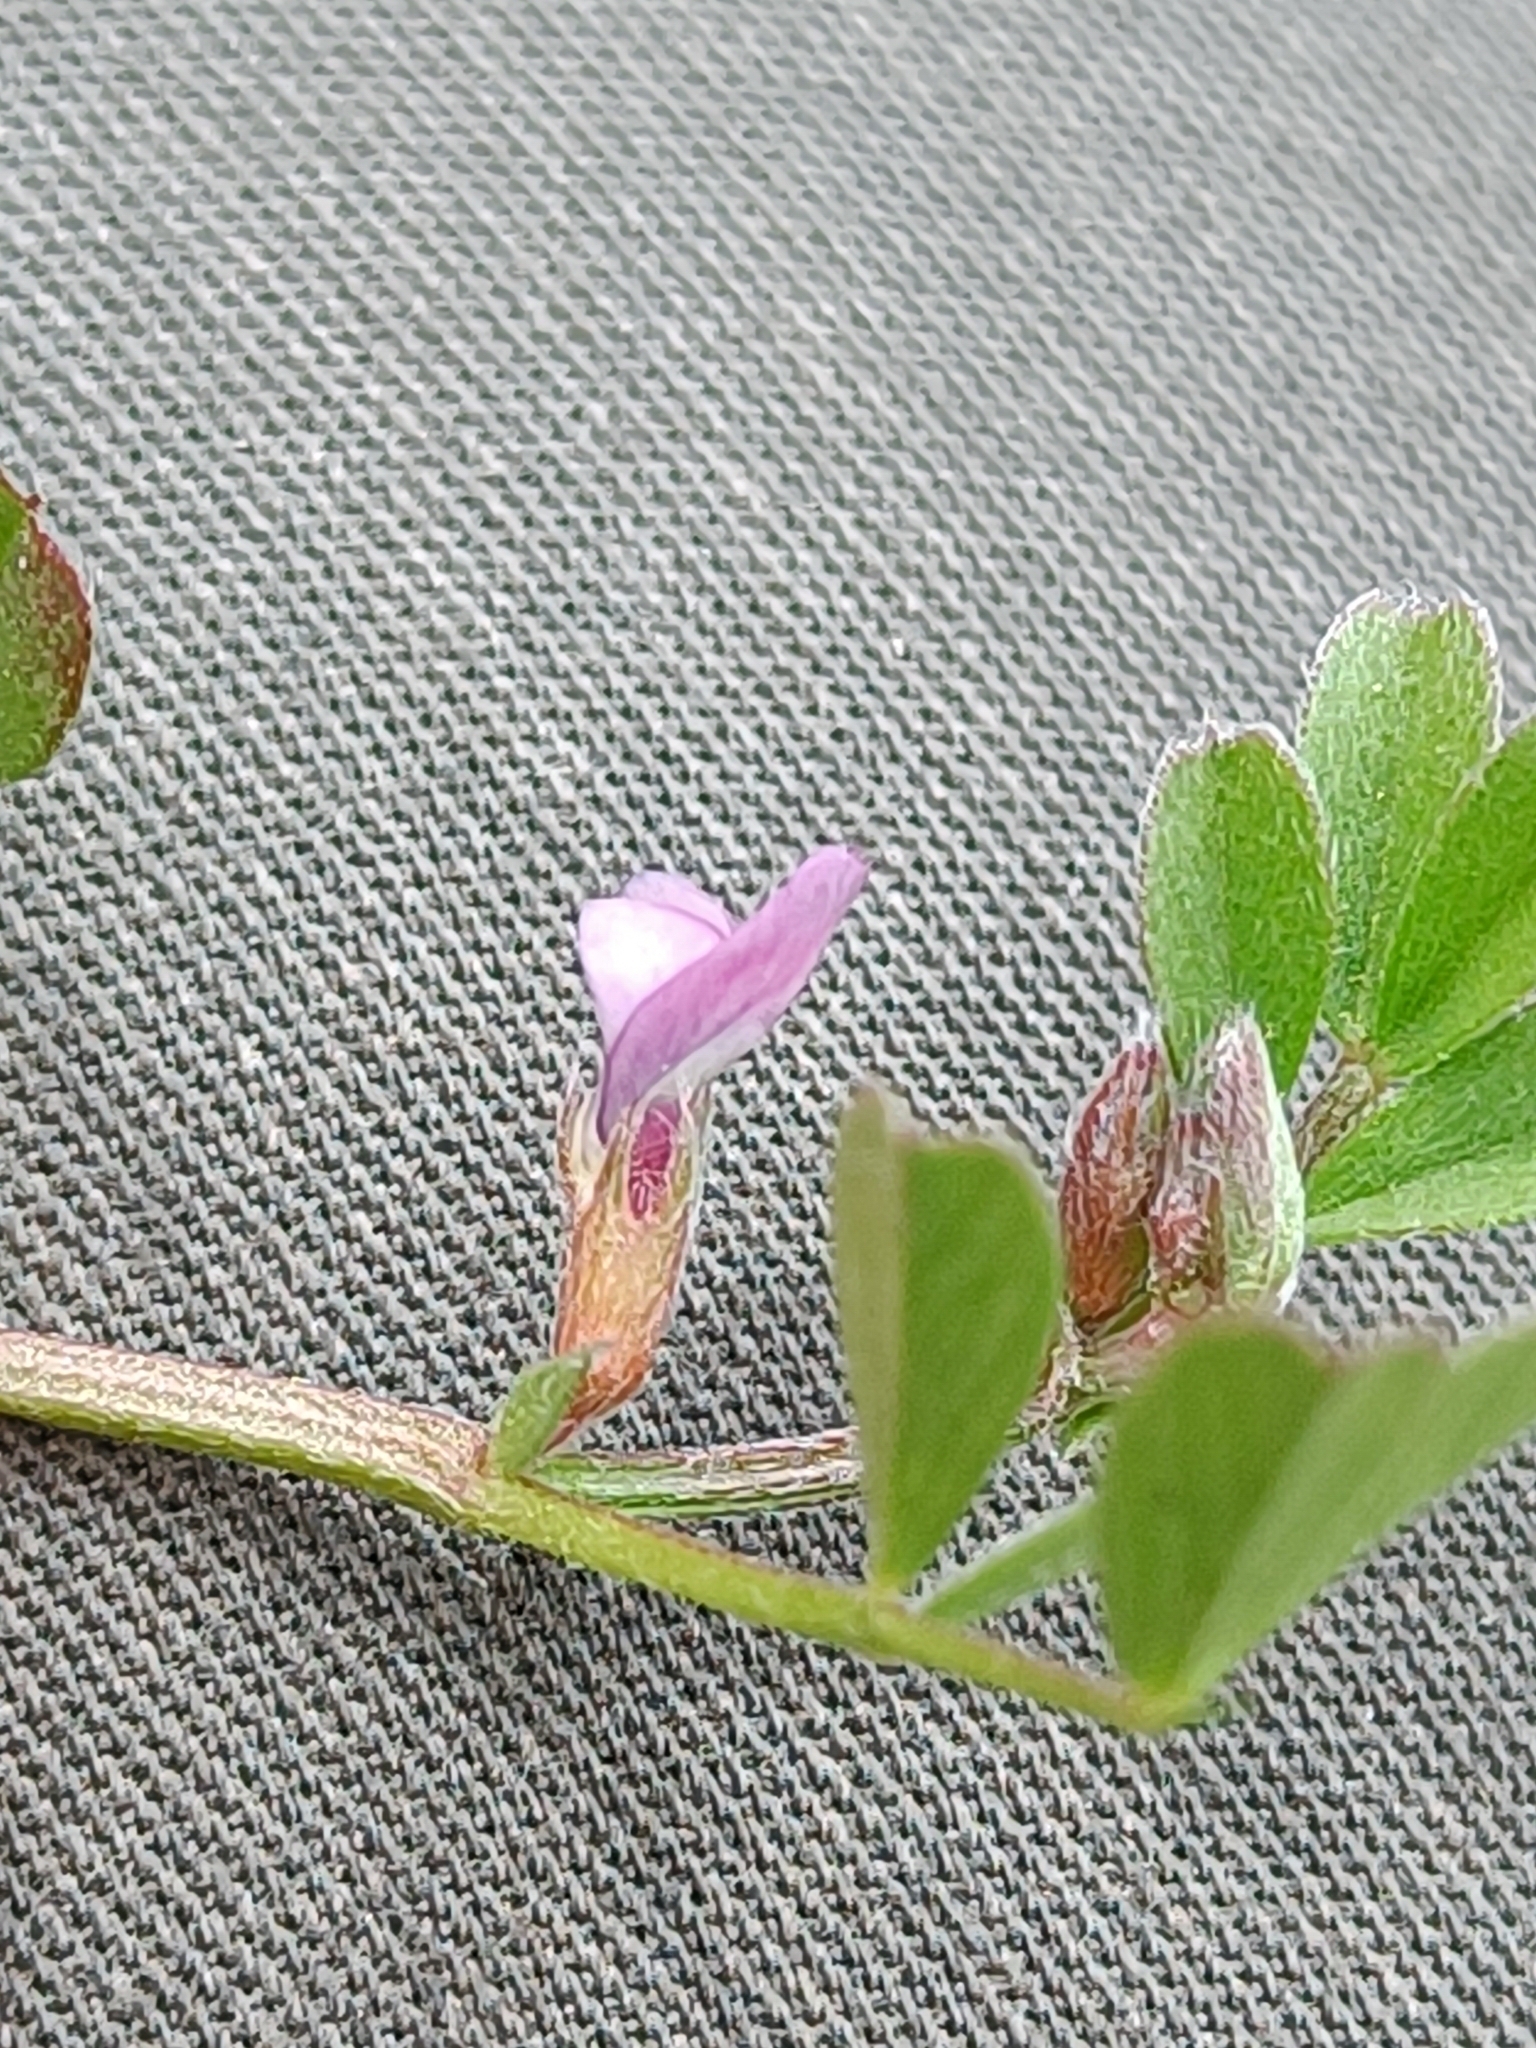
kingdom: Plantae
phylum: Tracheophyta
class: Magnoliopsida
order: Fabales
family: Fabaceae
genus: Vicia
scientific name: Vicia lathyroides
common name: Spring vetch
